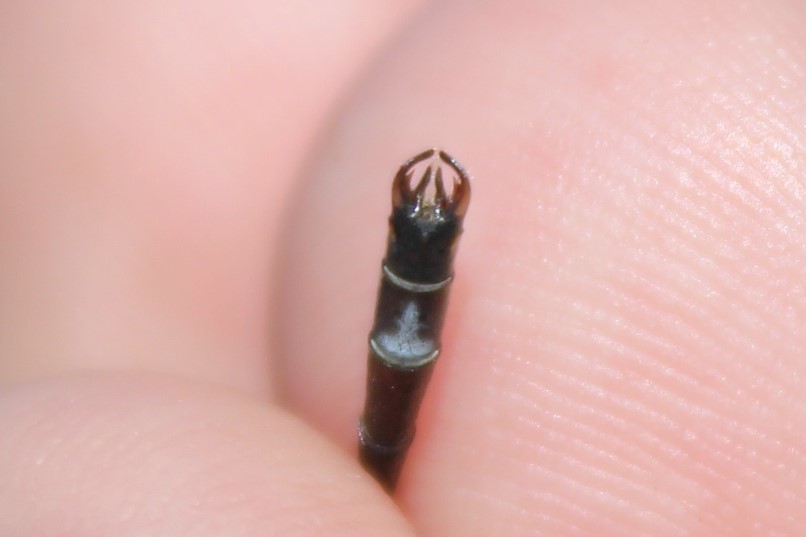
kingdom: Animalia
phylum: Arthropoda
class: Insecta
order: Odonata
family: Lestidae
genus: Lestes
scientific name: Lestes rectangularis
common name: Slender spreadwing
